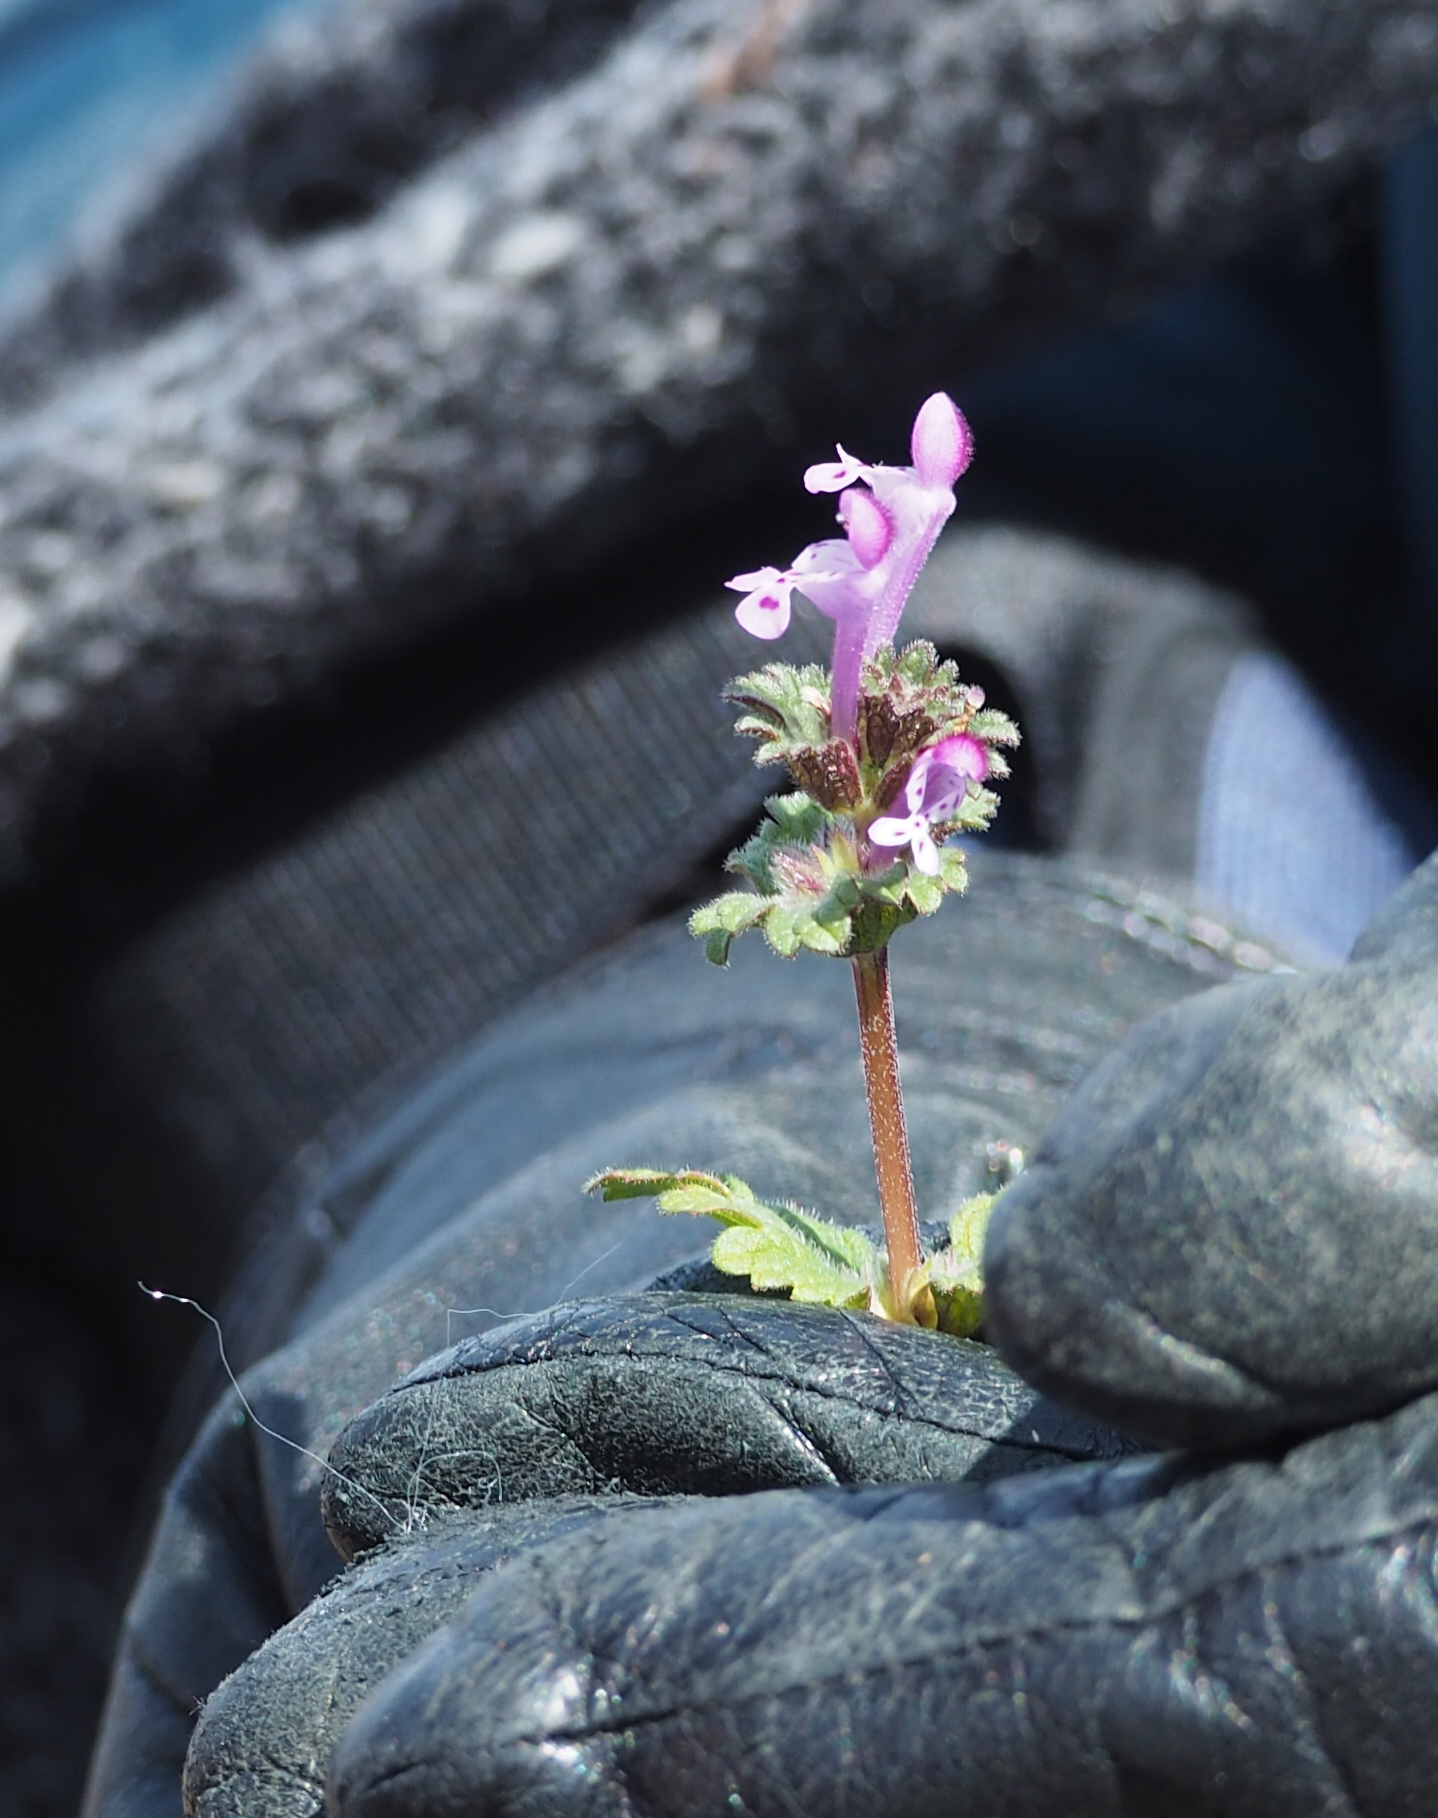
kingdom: Plantae
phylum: Tracheophyta
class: Magnoliopsida
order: Lamiales
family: Lamiaceae
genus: Lamium
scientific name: Lamium amplexicaule
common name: Henbit dead-nettle
